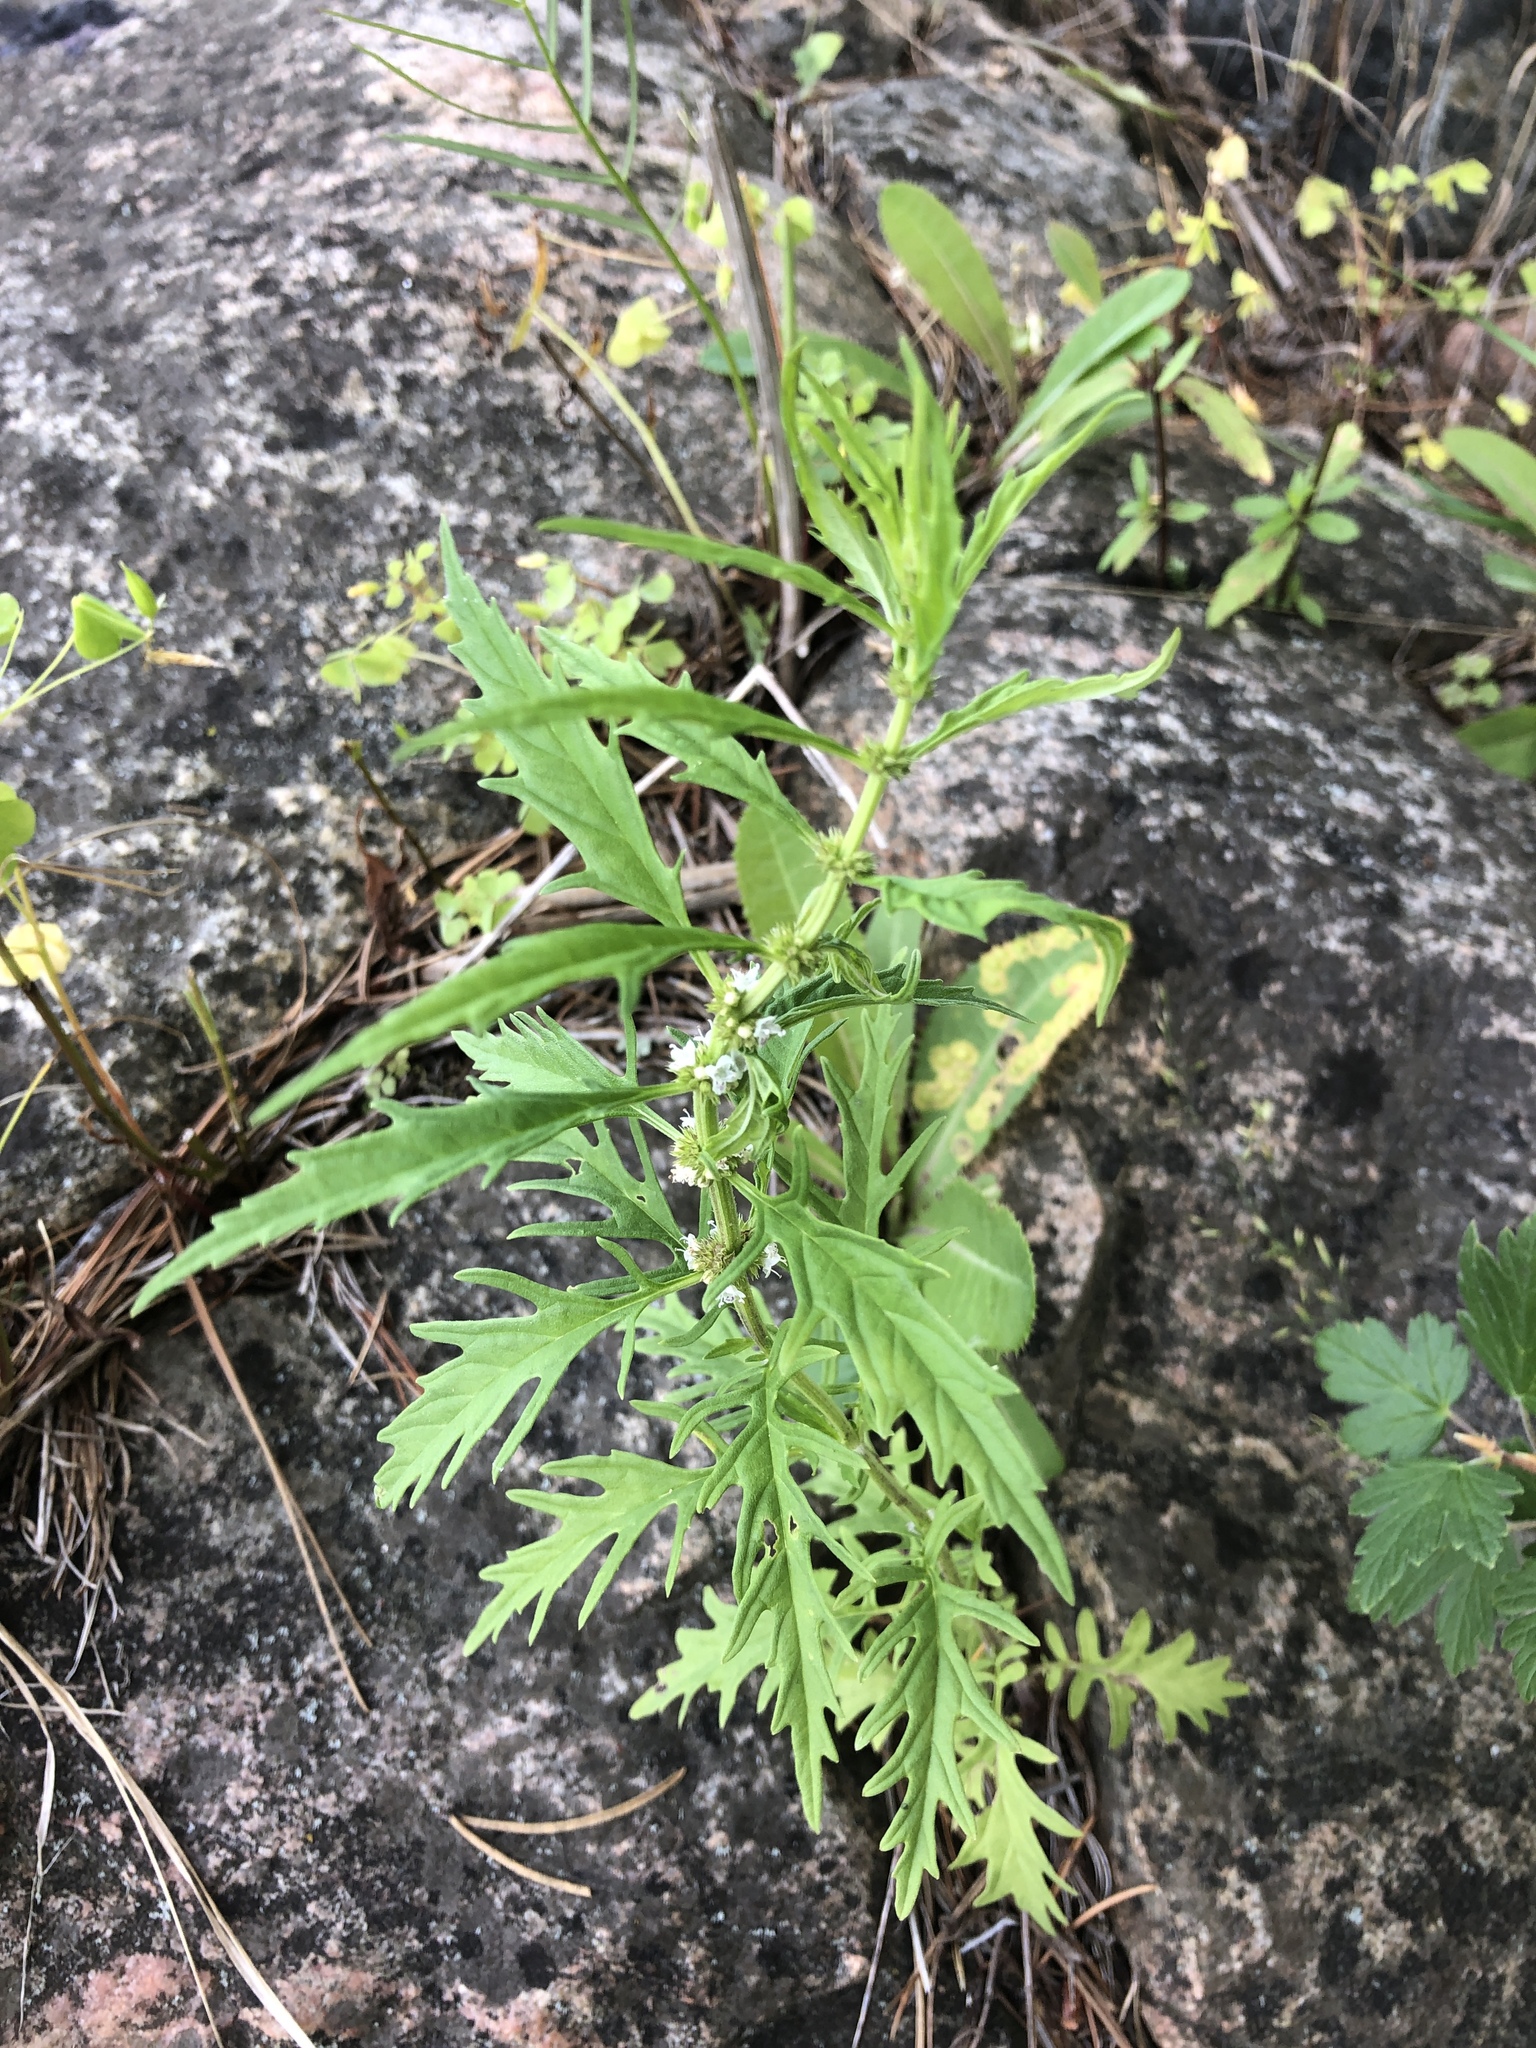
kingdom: Plantae
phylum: Tracheophyta
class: Magnoliopsida
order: Lamiales
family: Lamiaceae
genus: Lycopus
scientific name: Lycopus americanus
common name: American bugleweed
